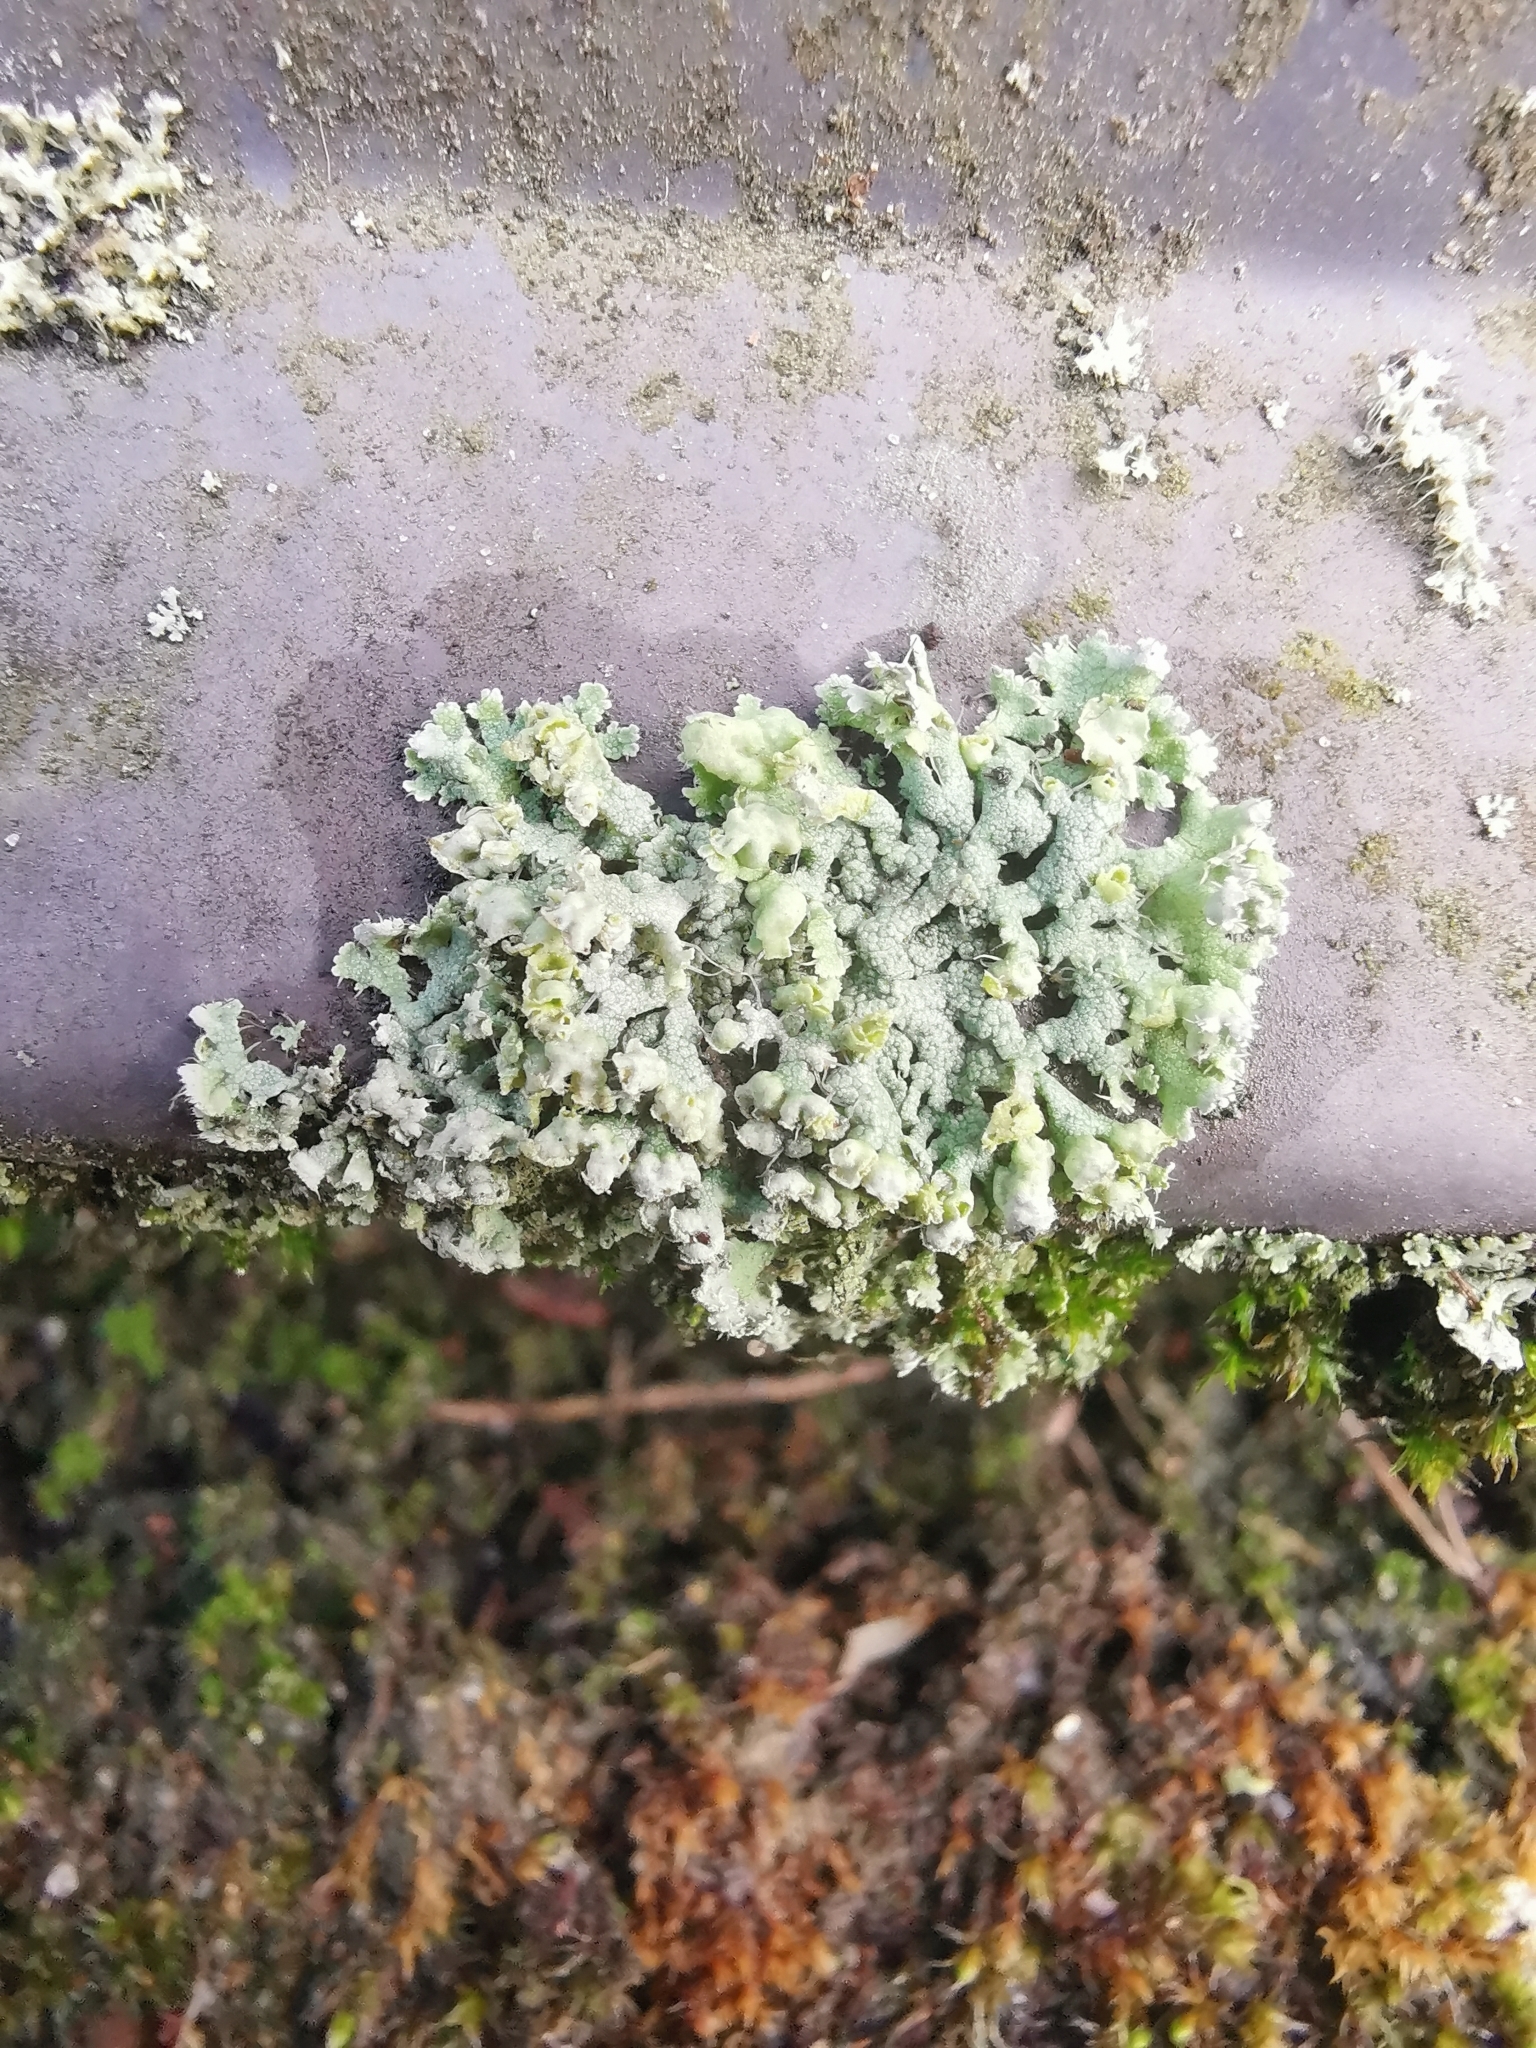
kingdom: Fungi
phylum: Ascomycota
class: Lecanoromycetes
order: Caliciales
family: Physciaceae
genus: Physcia
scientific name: Physcia adscendens
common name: Hooded rosette lichen
